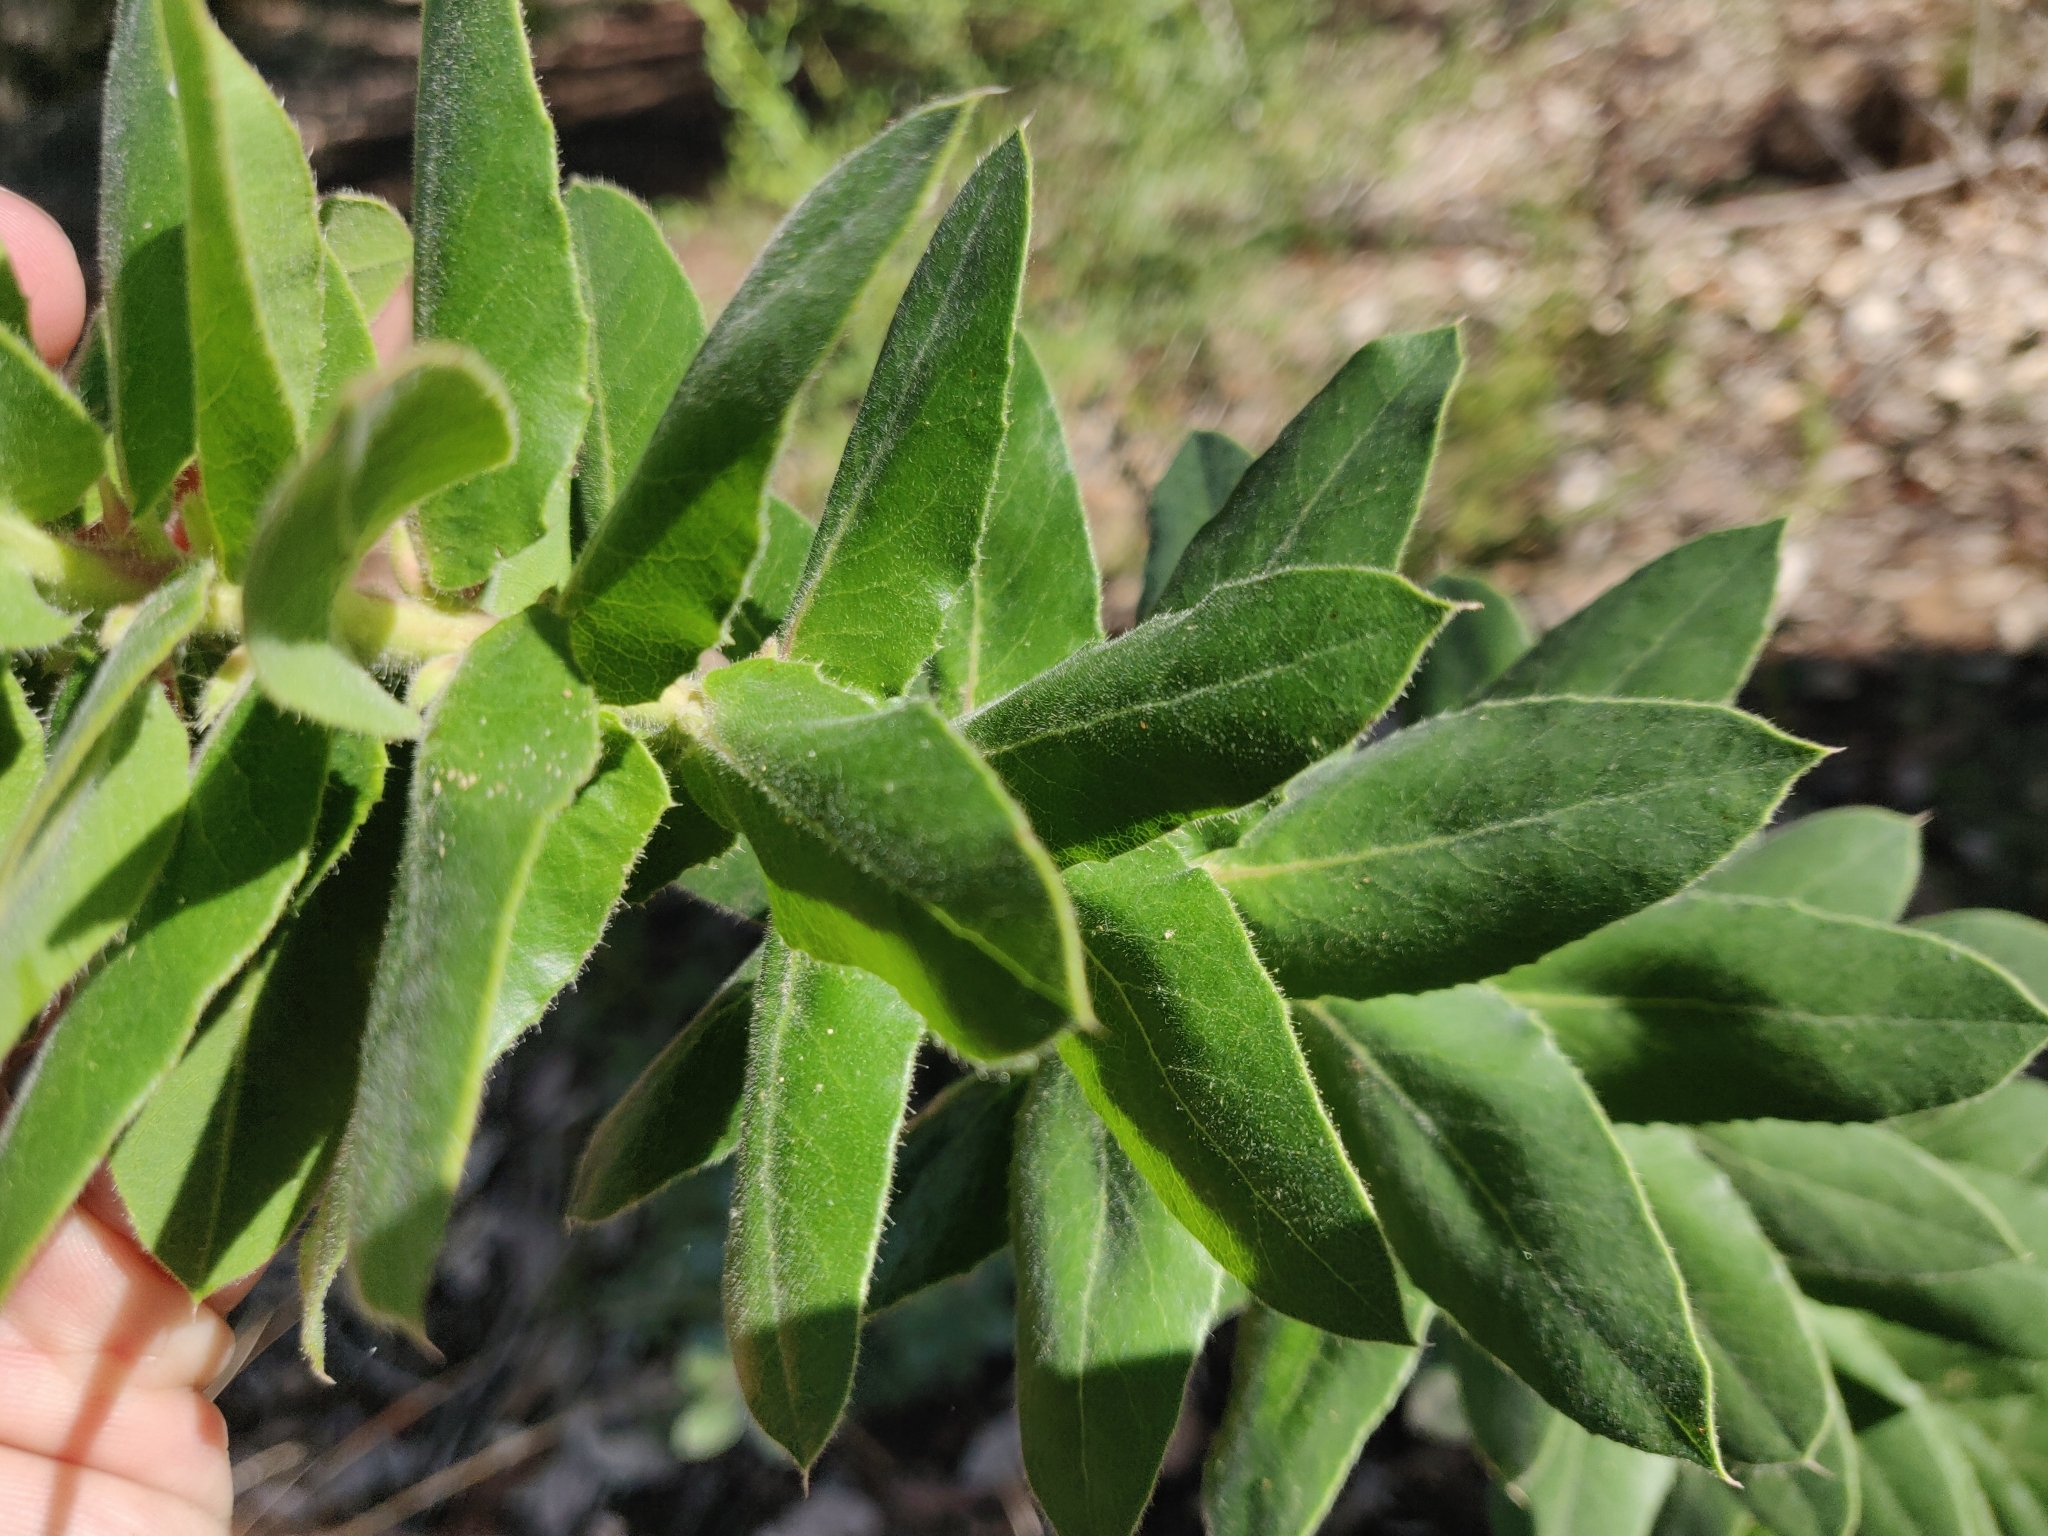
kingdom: Plantae
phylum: Tracheophyta
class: Magnoliopsida
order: Ericales
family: Ericaceae
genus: Arctostaphylos
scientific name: Arctostaphylos andersonii
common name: Santa cruz manzanita
